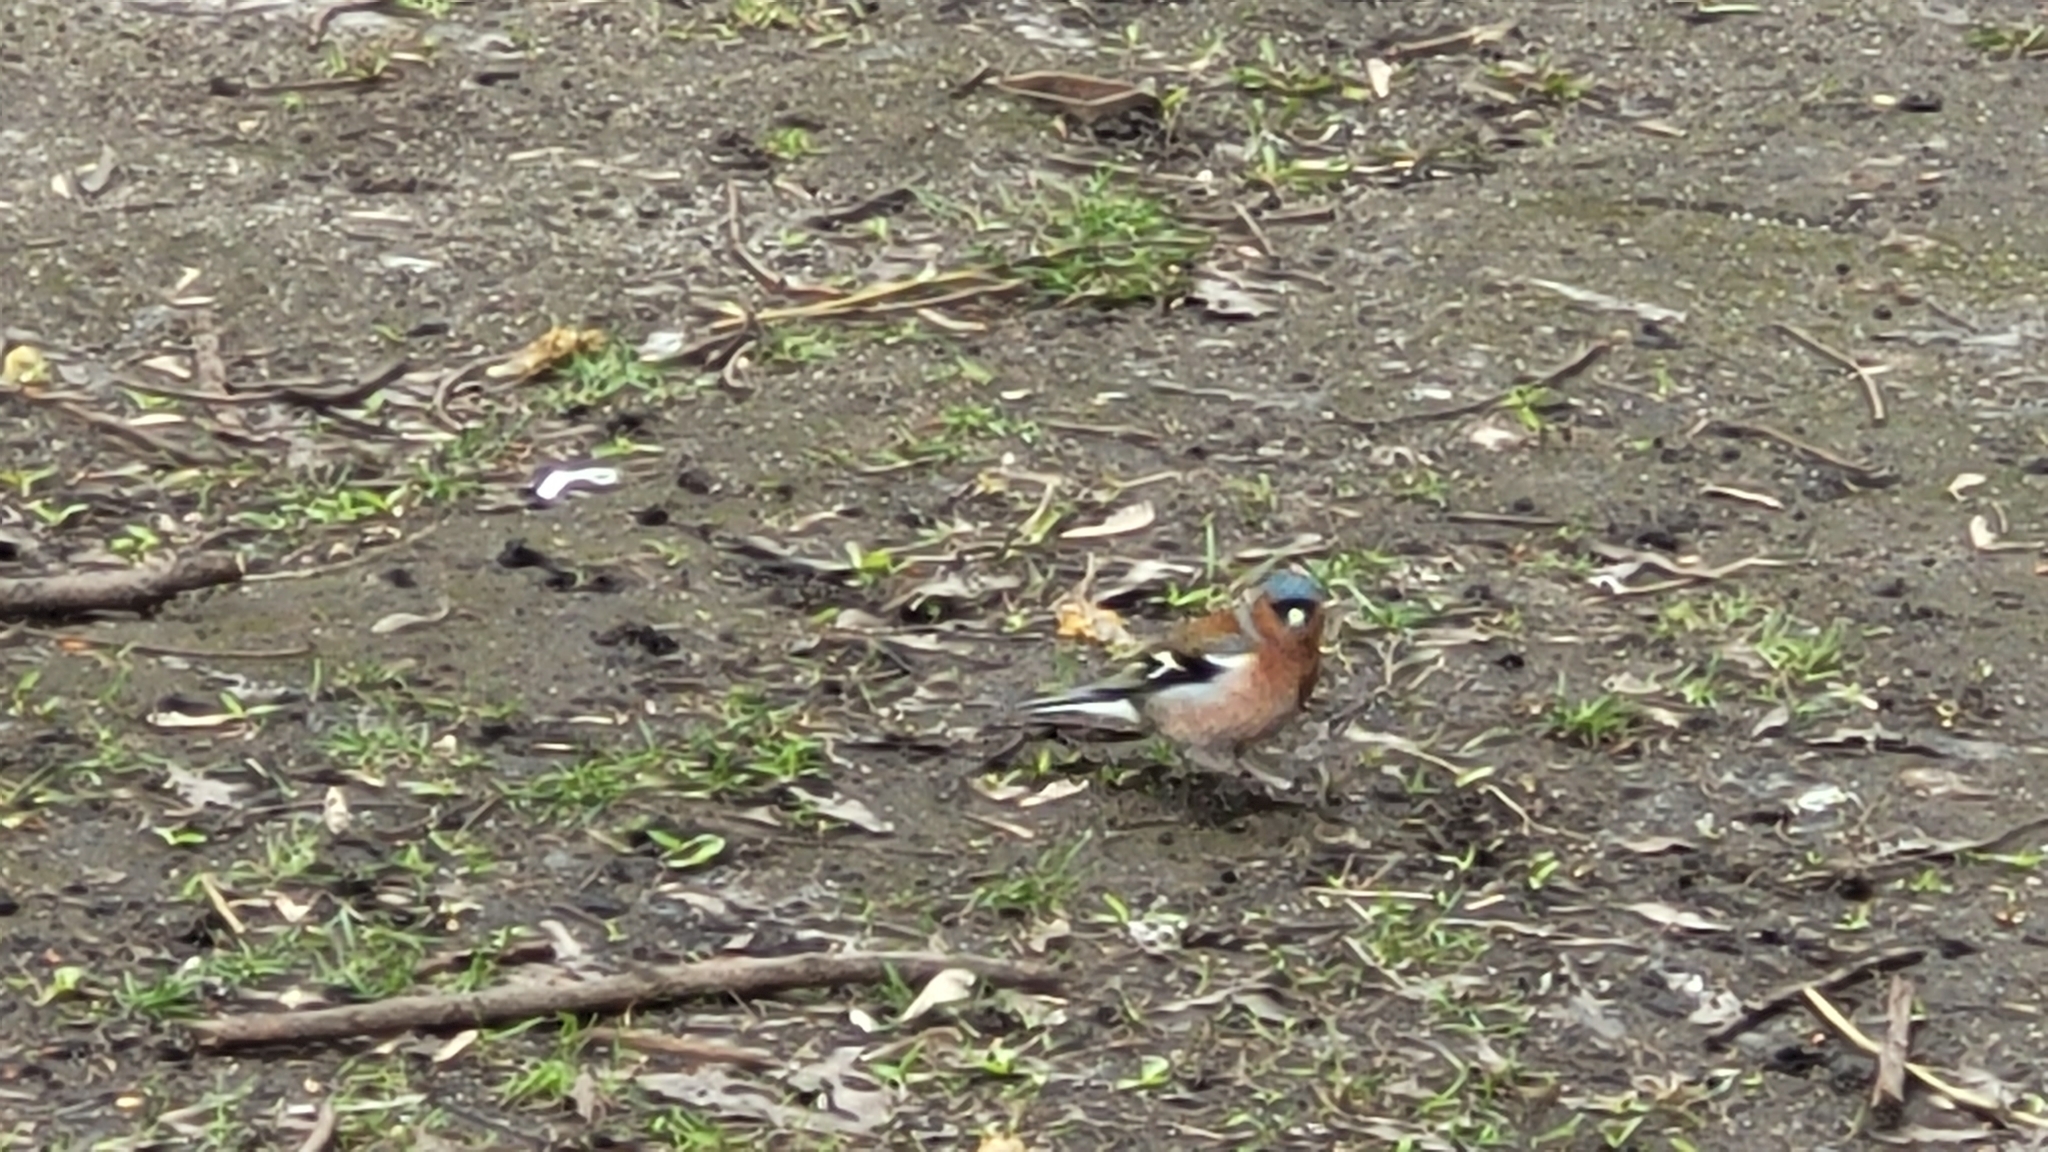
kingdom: Animalia
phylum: Chordata
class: Aves
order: Passeriformes
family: Fringillidae
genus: Fringilla
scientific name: Fringilla coelebs
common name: Common chaffinch
